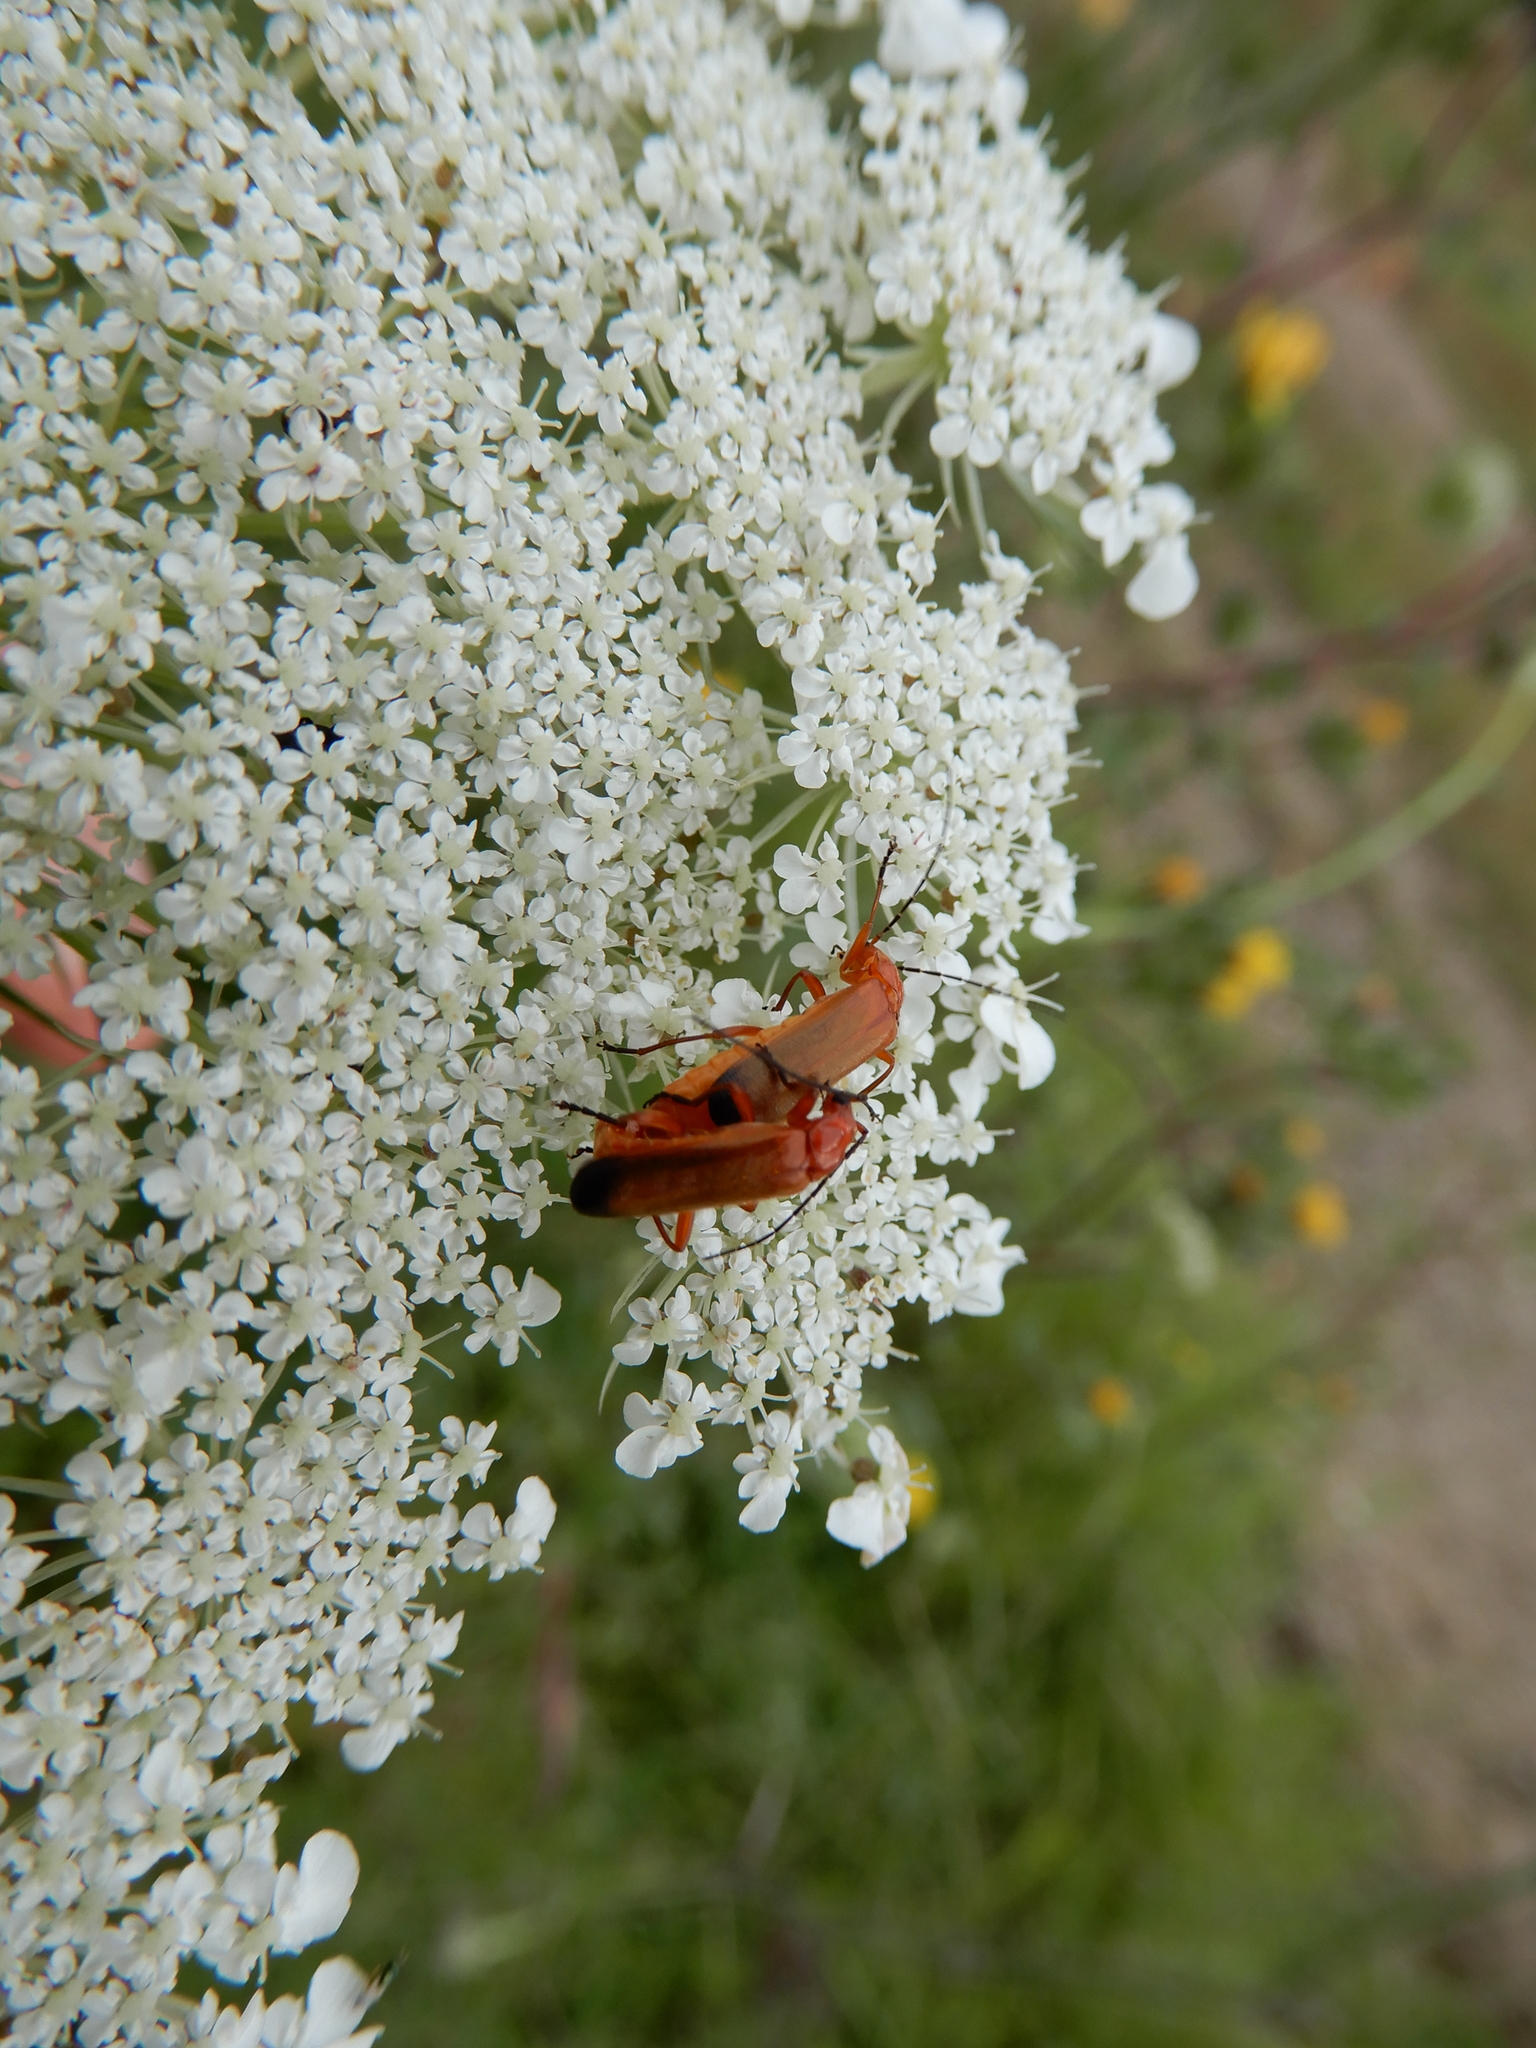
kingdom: Animalia
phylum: Arthropoda
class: Insecta
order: Coleoptera
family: Cantharidae
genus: Rhagonycha
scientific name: Rhagonycha fulva
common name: Common red soldier beetle
